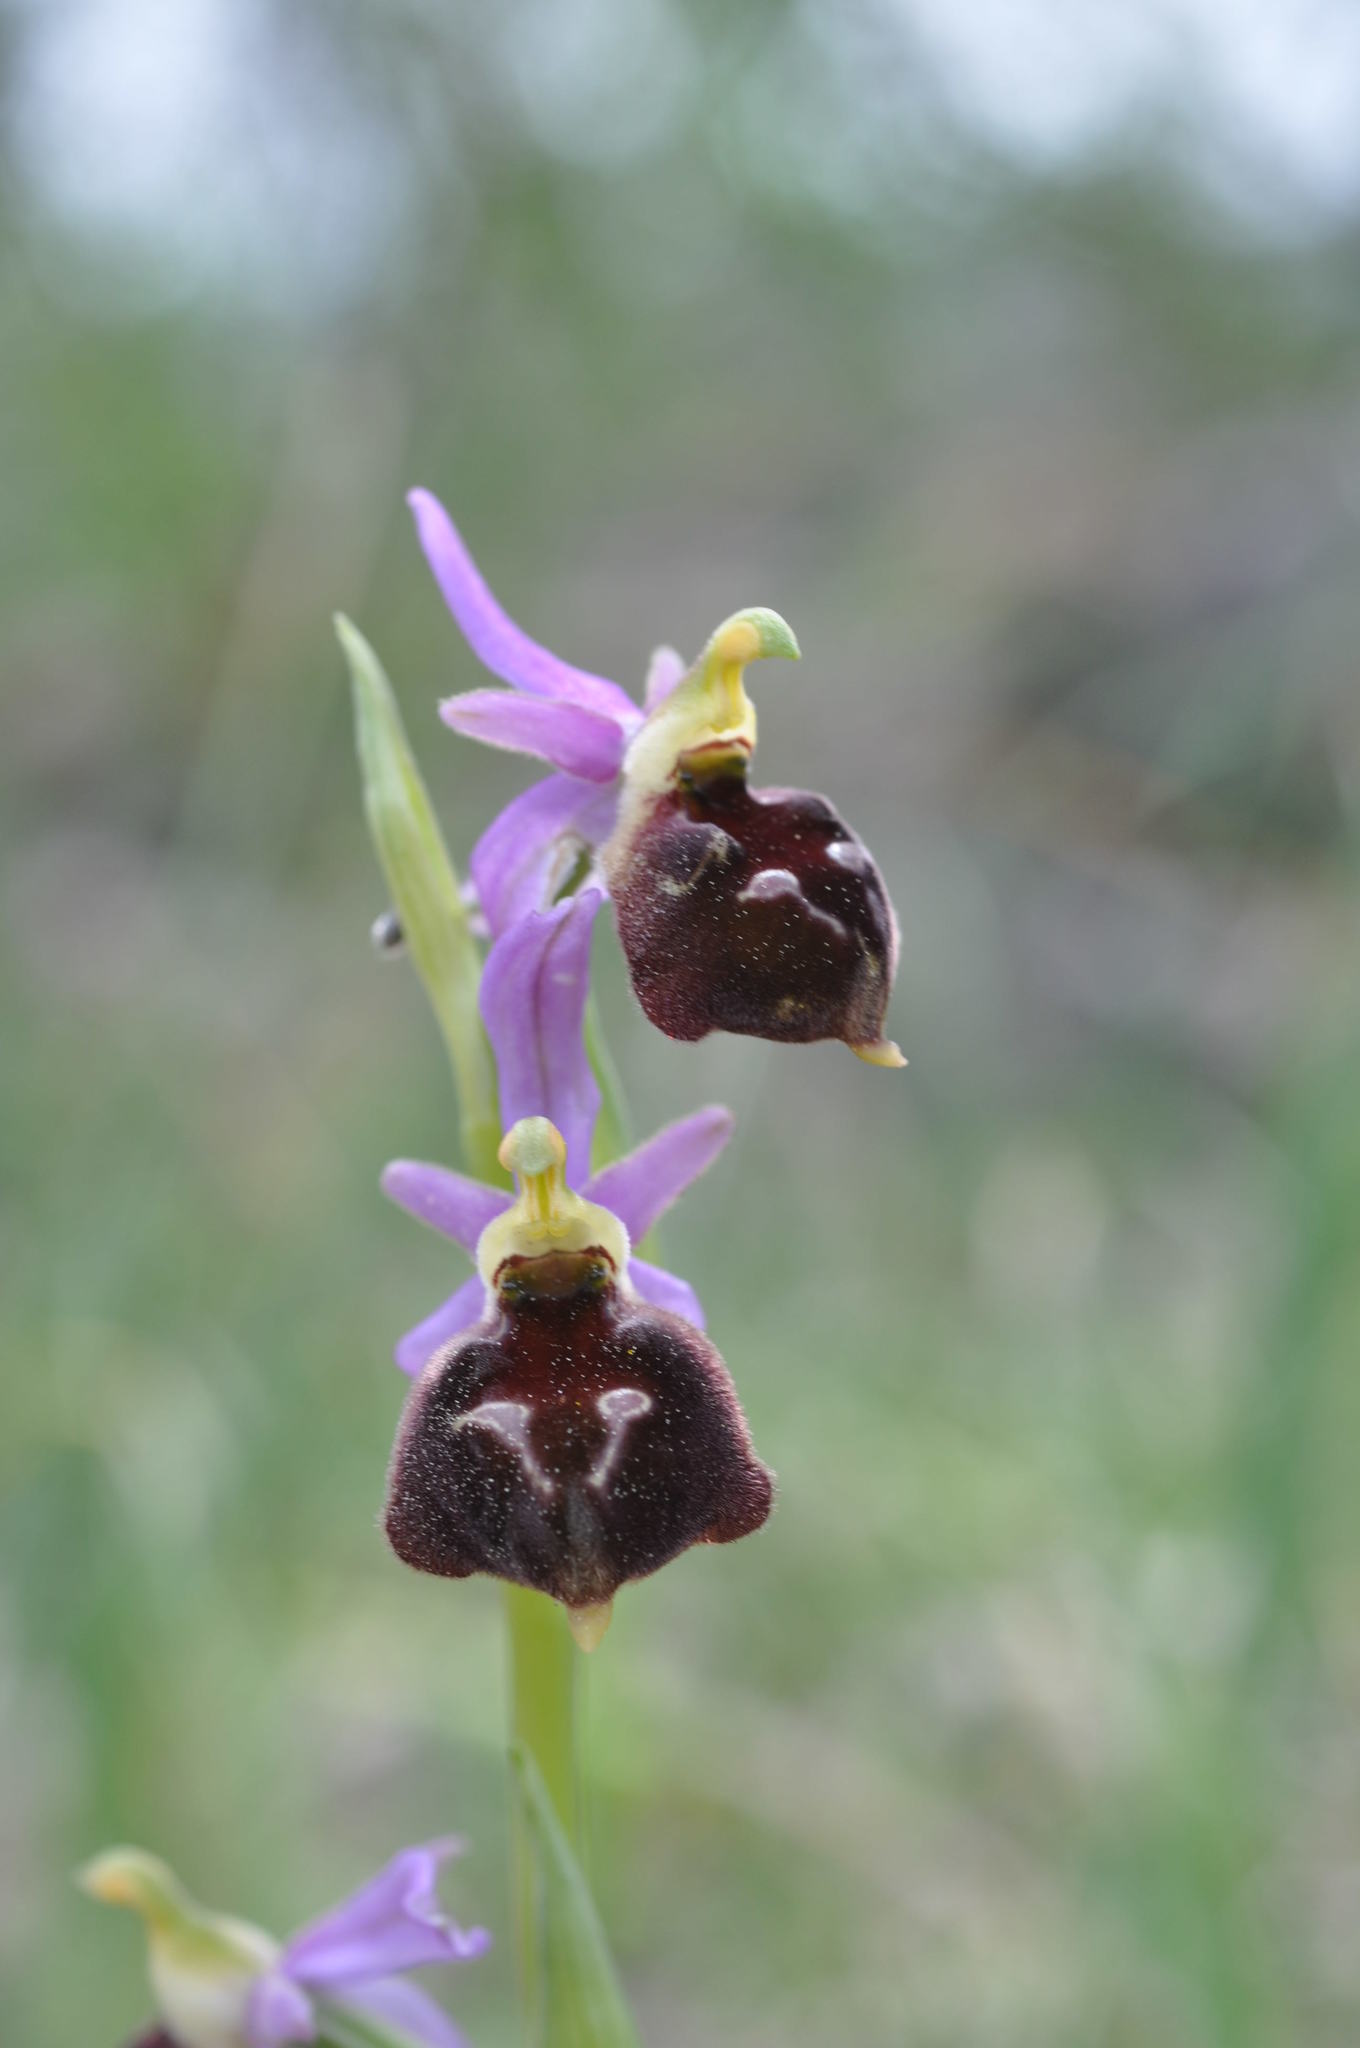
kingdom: Plantae
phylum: Tracheophyta
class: Liliopsida
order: Asparagales
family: Orchidaceae
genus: Ophrys
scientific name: Ophrys holosericea
